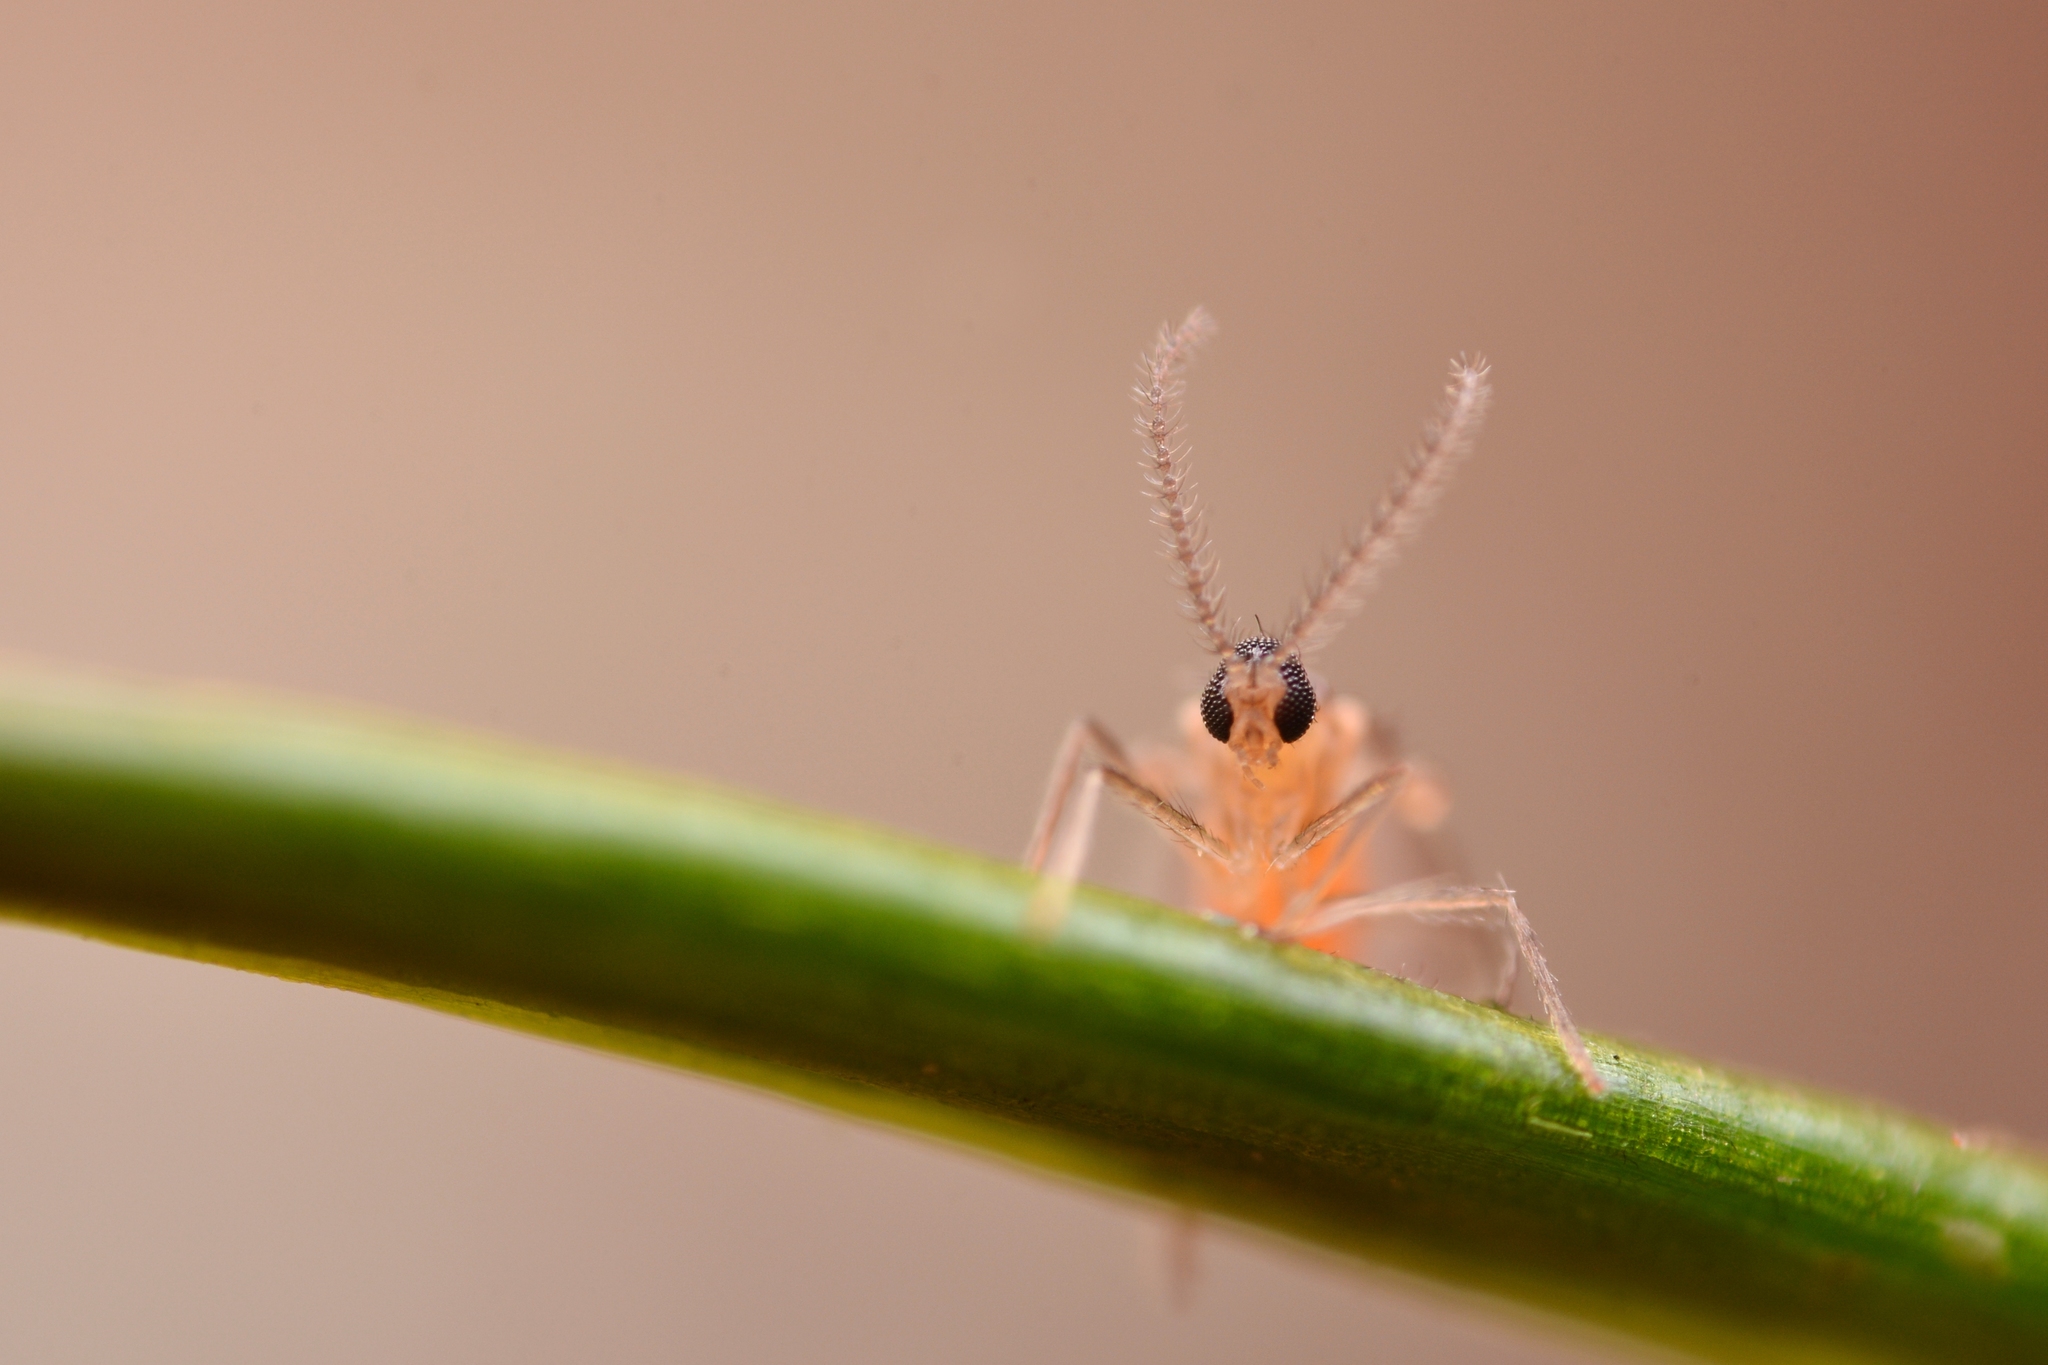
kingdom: Animalia
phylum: Arthropoda
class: Insecta
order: Diptera
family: Cecidomyiidae
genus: Contarinia
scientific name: Contarinia pseudotsugae
